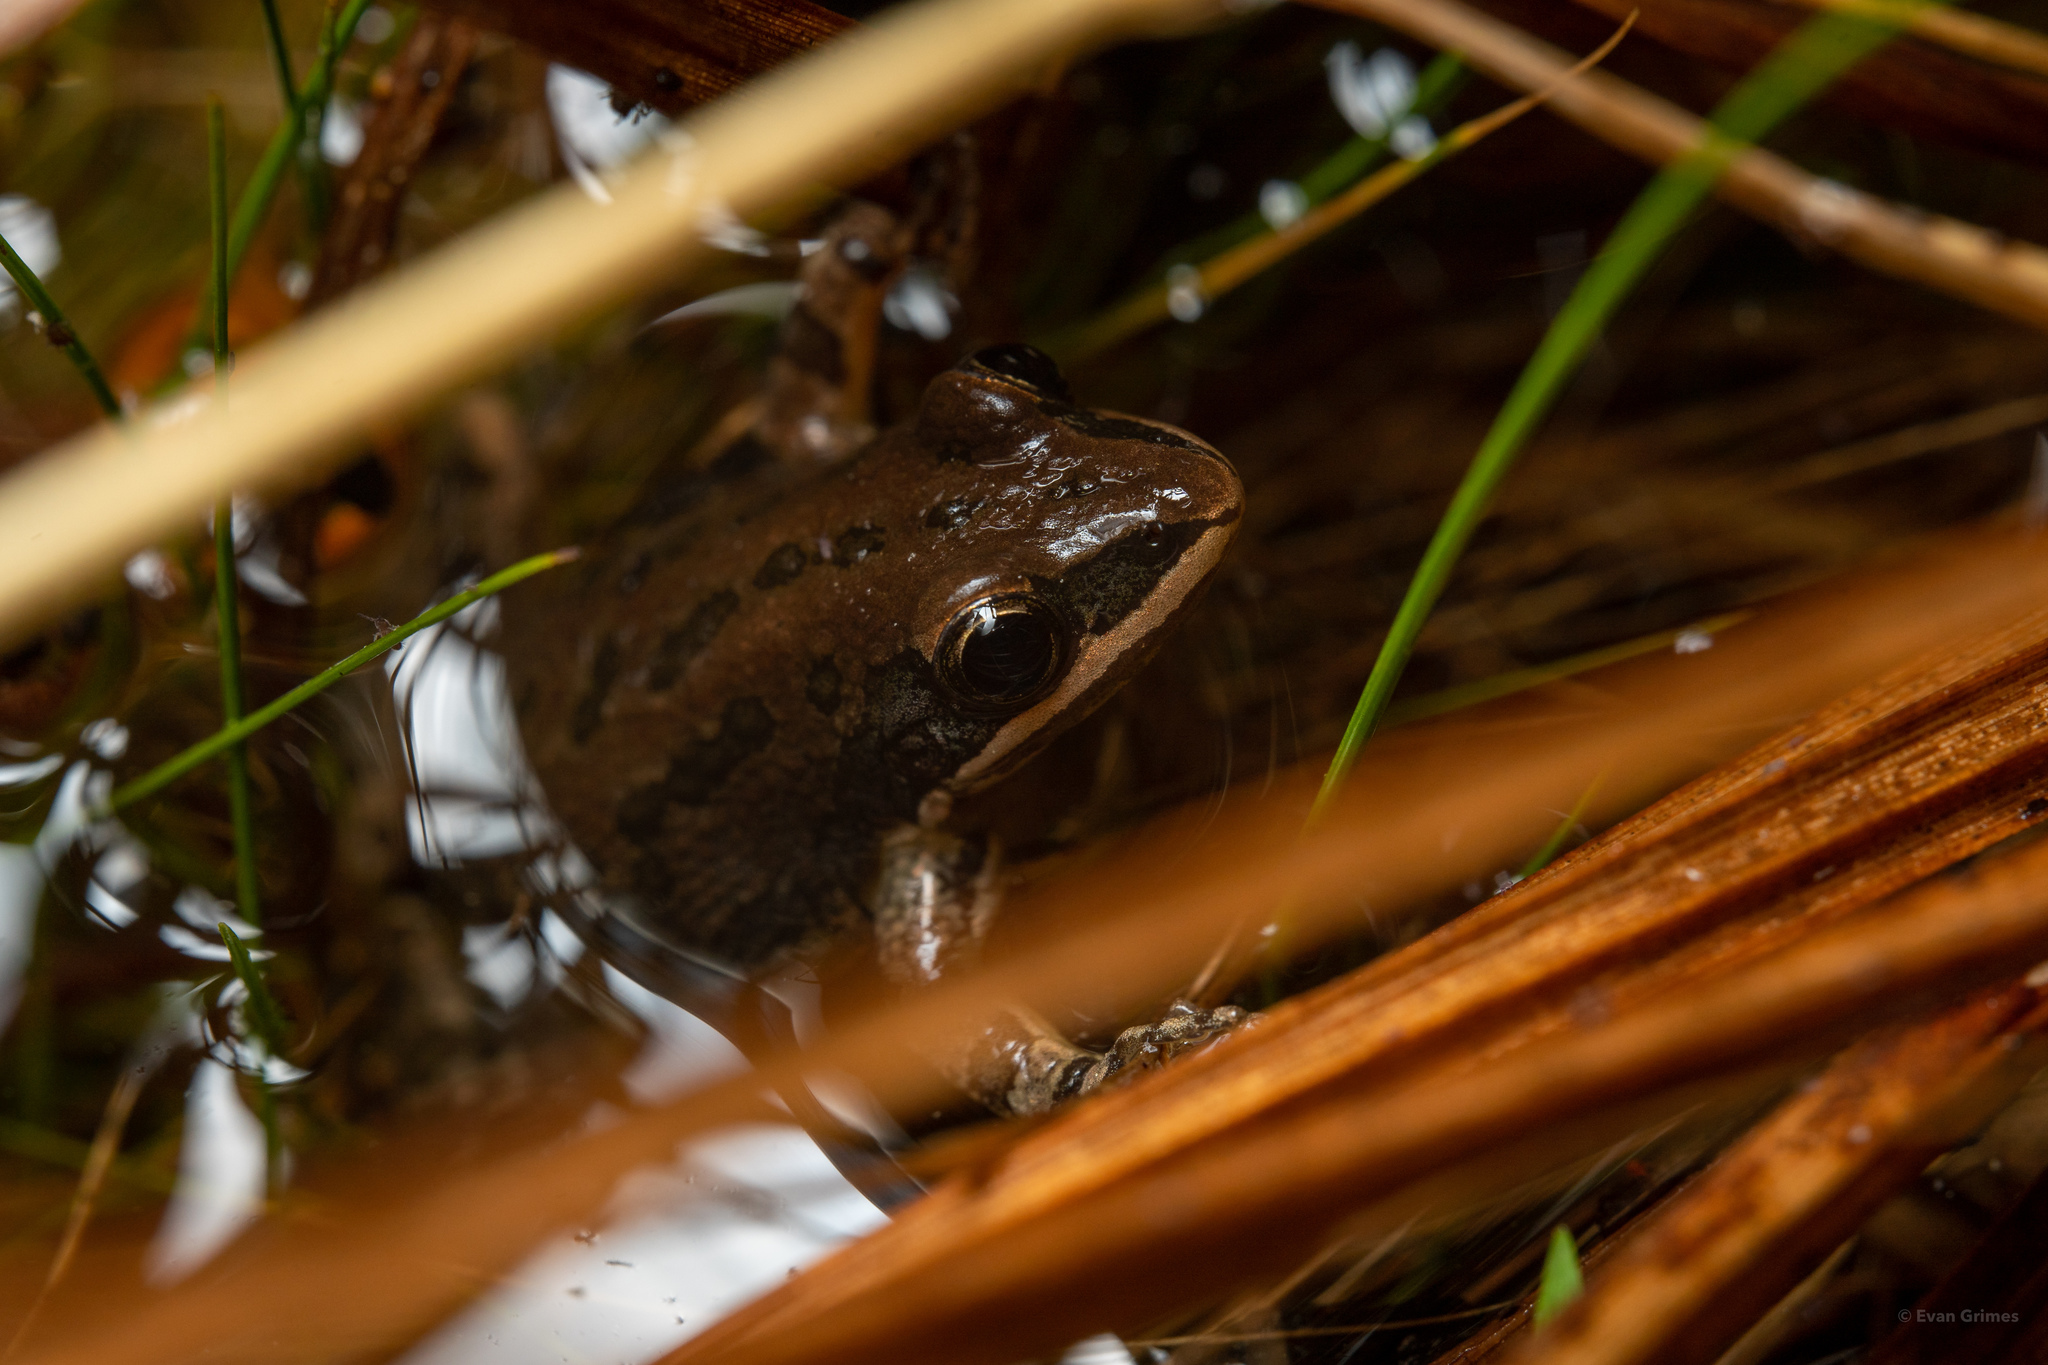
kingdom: Animalia
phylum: Chordata
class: Amphibia
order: Anura
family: Hylidae
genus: Pseudacris
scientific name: Pseudacris nigrita
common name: Southern chorus frog
